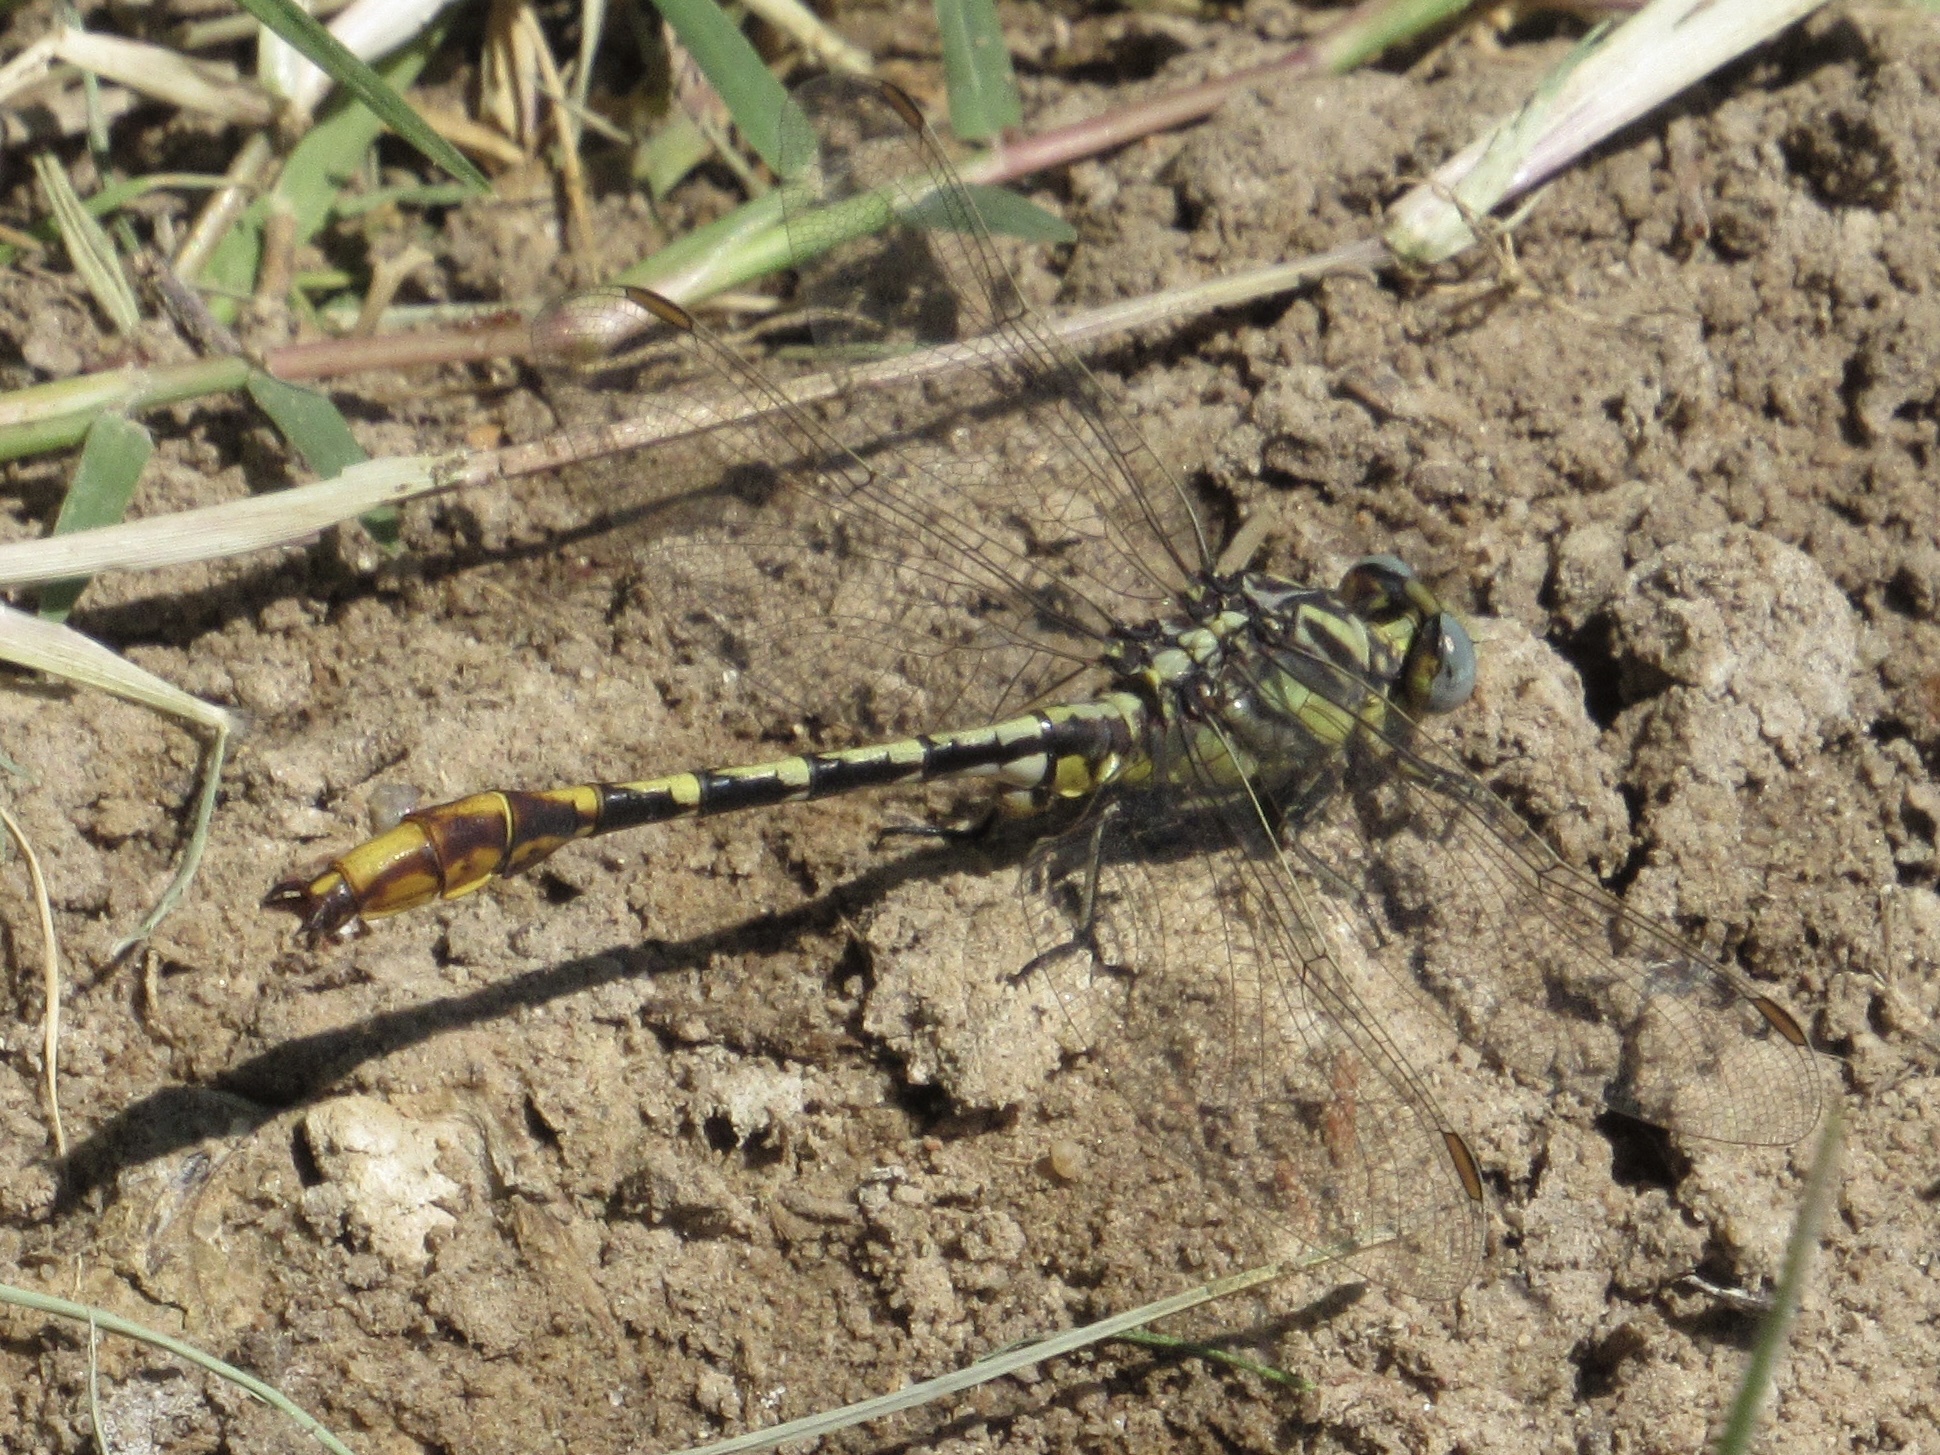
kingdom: Animalia
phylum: Arthropoda
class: Insecta
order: Odonata
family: Gomphidae
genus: Phanogomphus
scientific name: Phanogomphus militaris
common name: Sulphur-tipped clubtail
